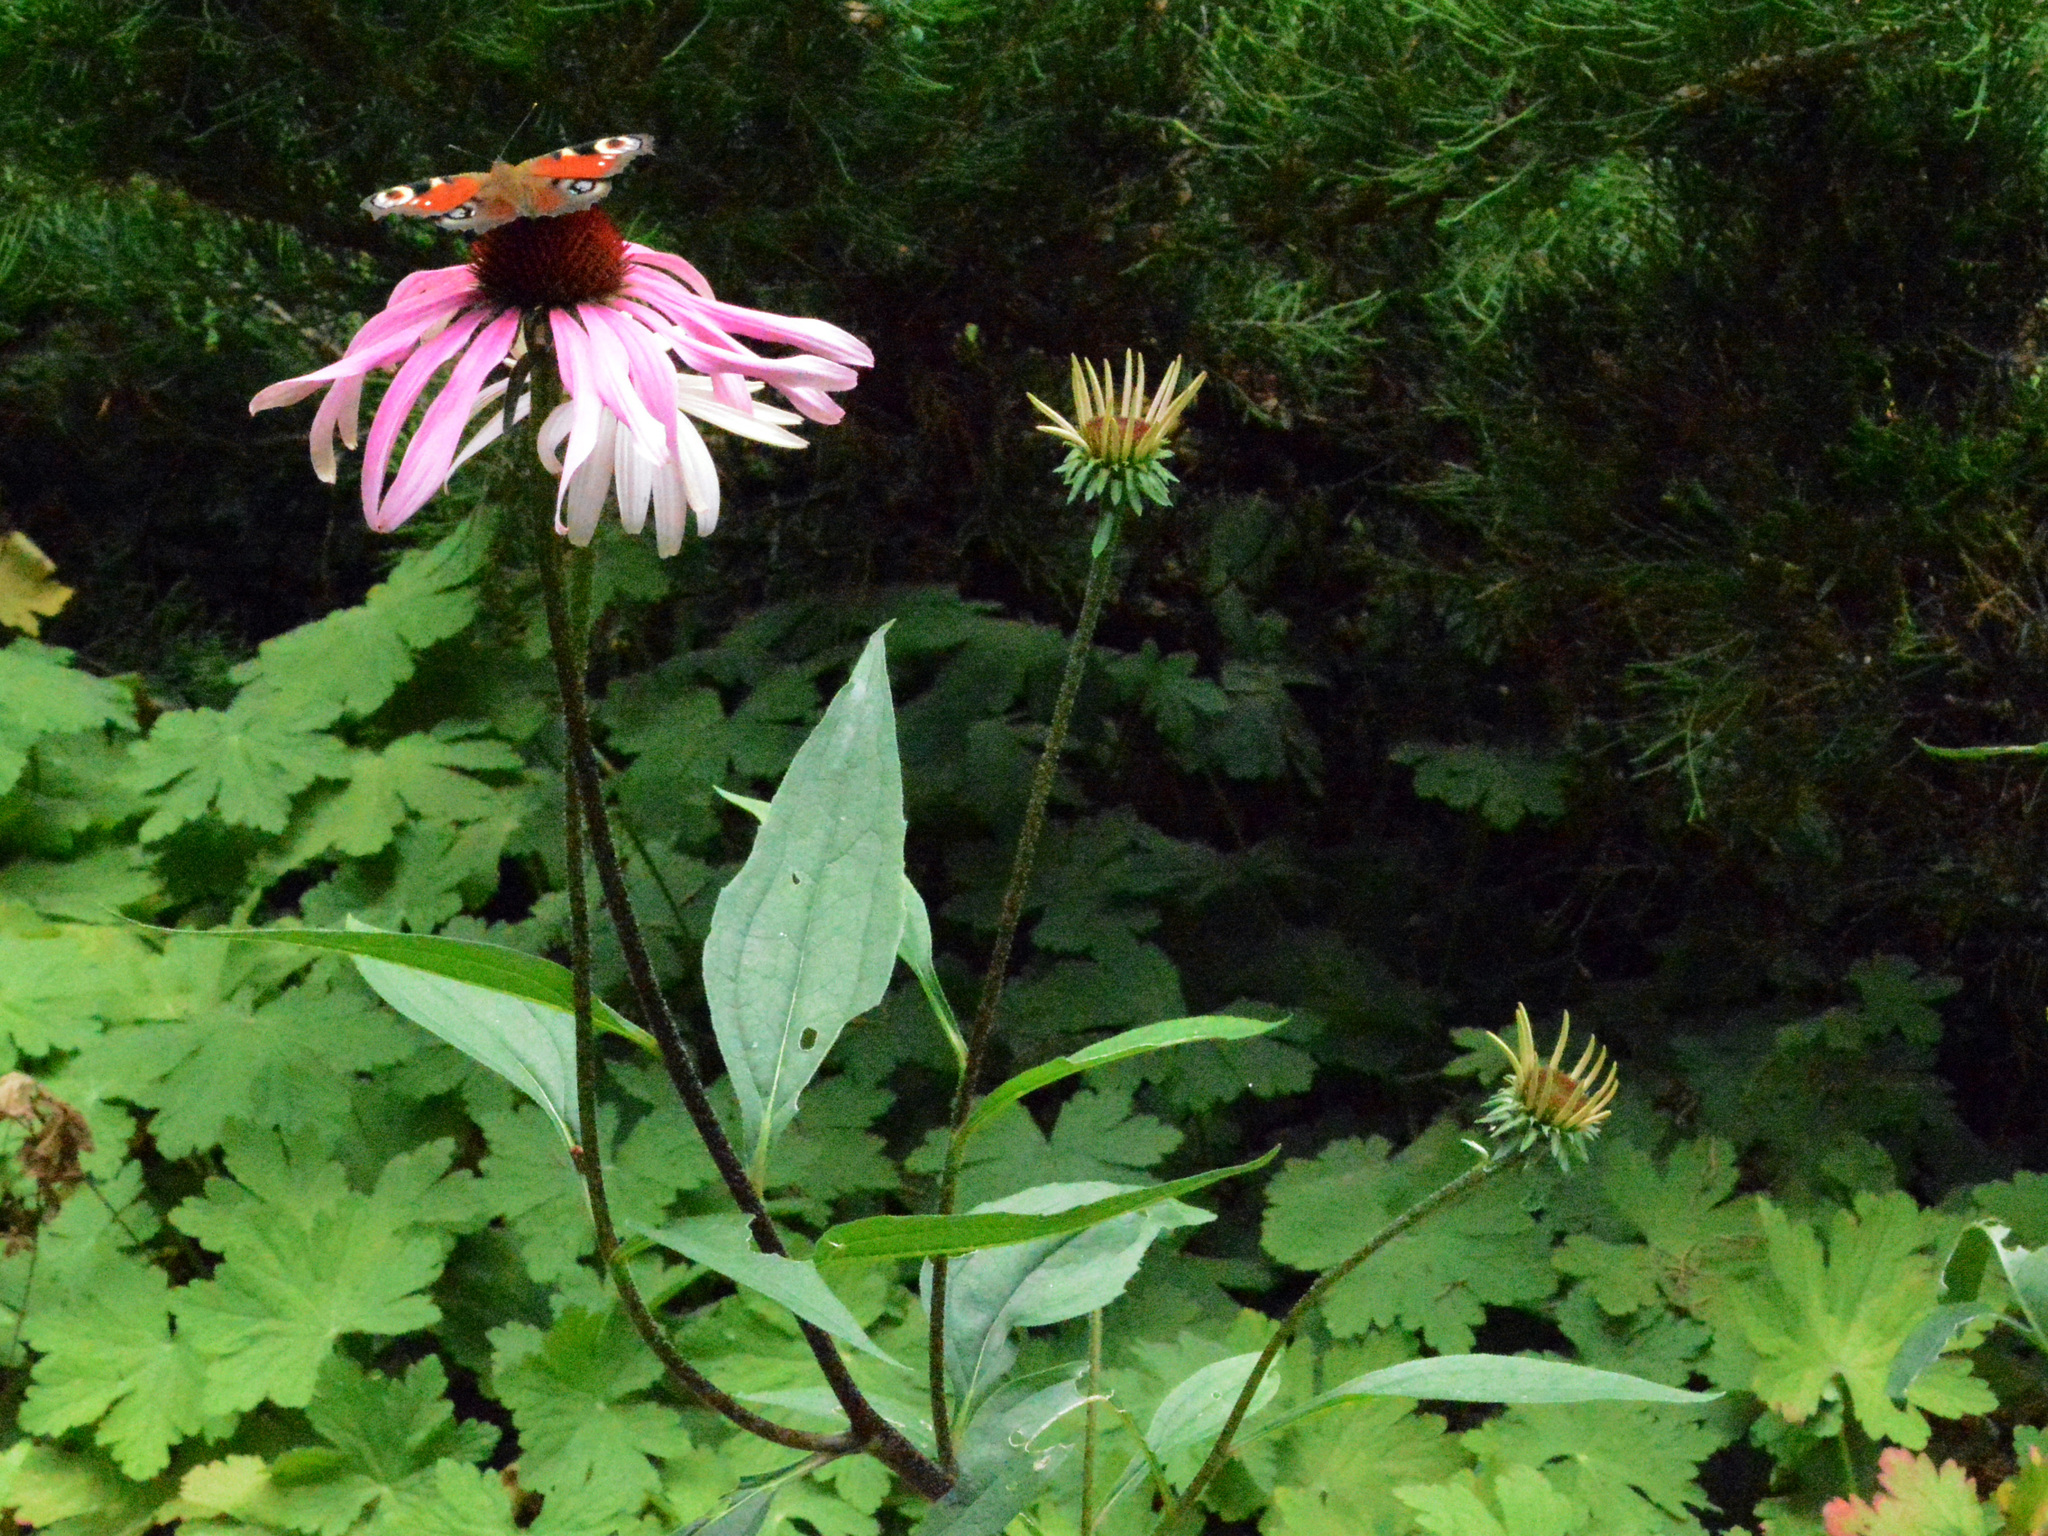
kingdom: Animalia
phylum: Arthropoda
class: Insecta
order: Lepidoptera
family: Nymphalidae
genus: Aglais
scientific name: Aglais io
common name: Peacock
